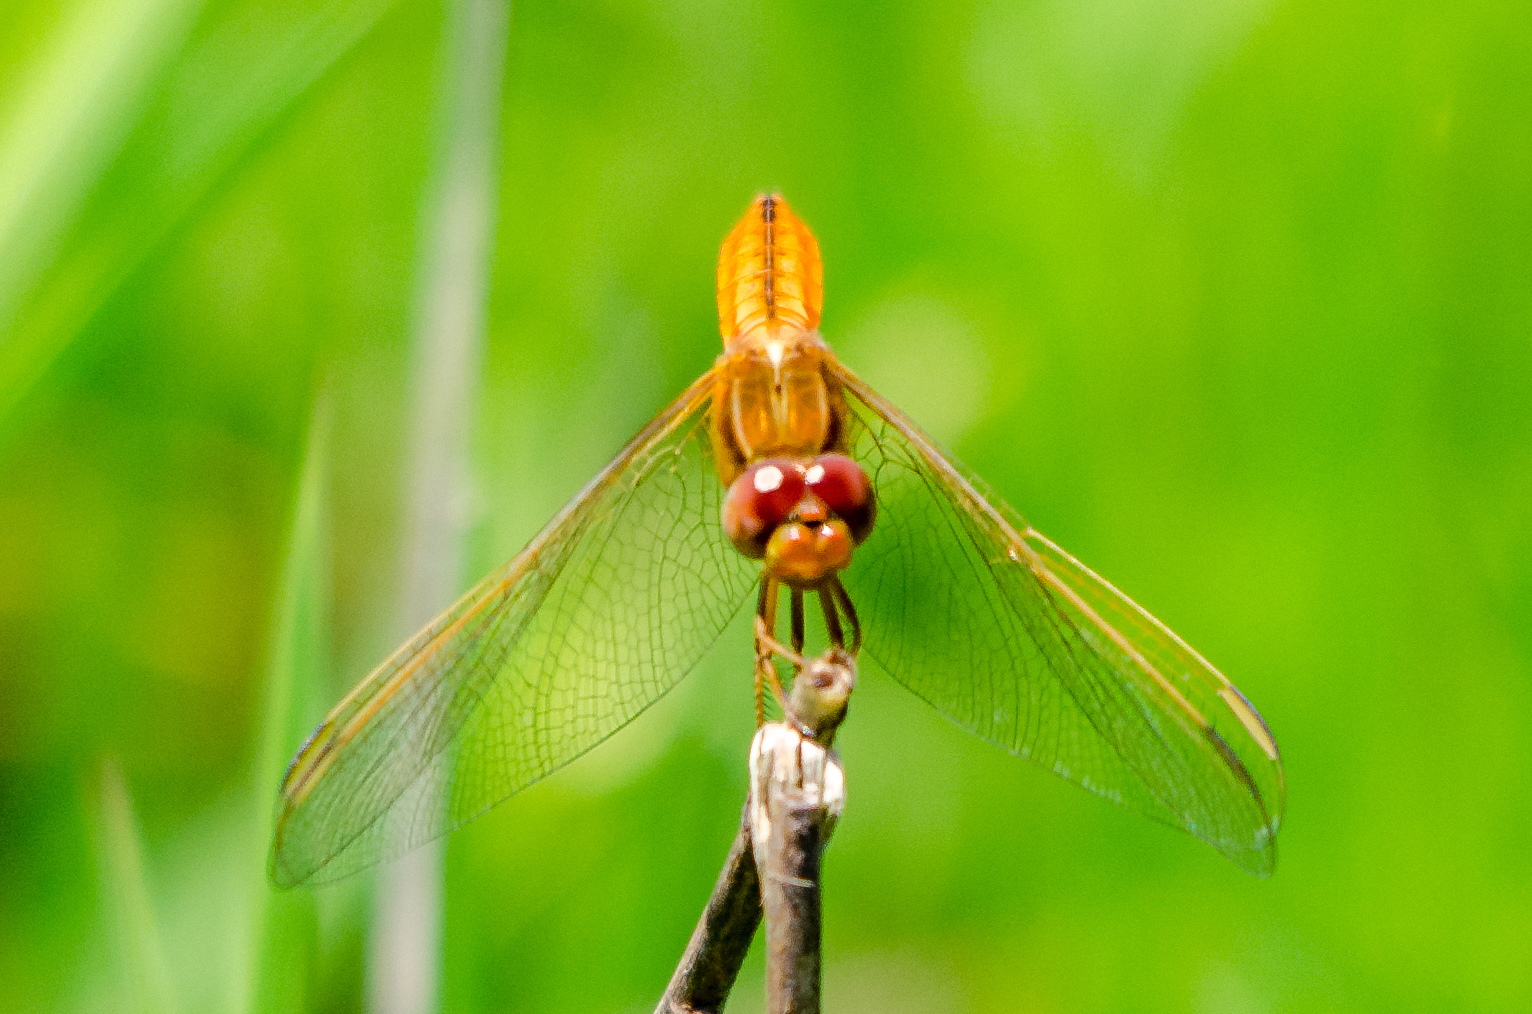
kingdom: Animalia
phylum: Arthropoda
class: Insecta
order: Odonata
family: Libellulidae
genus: Crocothemis
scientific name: Crocothemis erythraea
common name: Scarlet dragonfly
